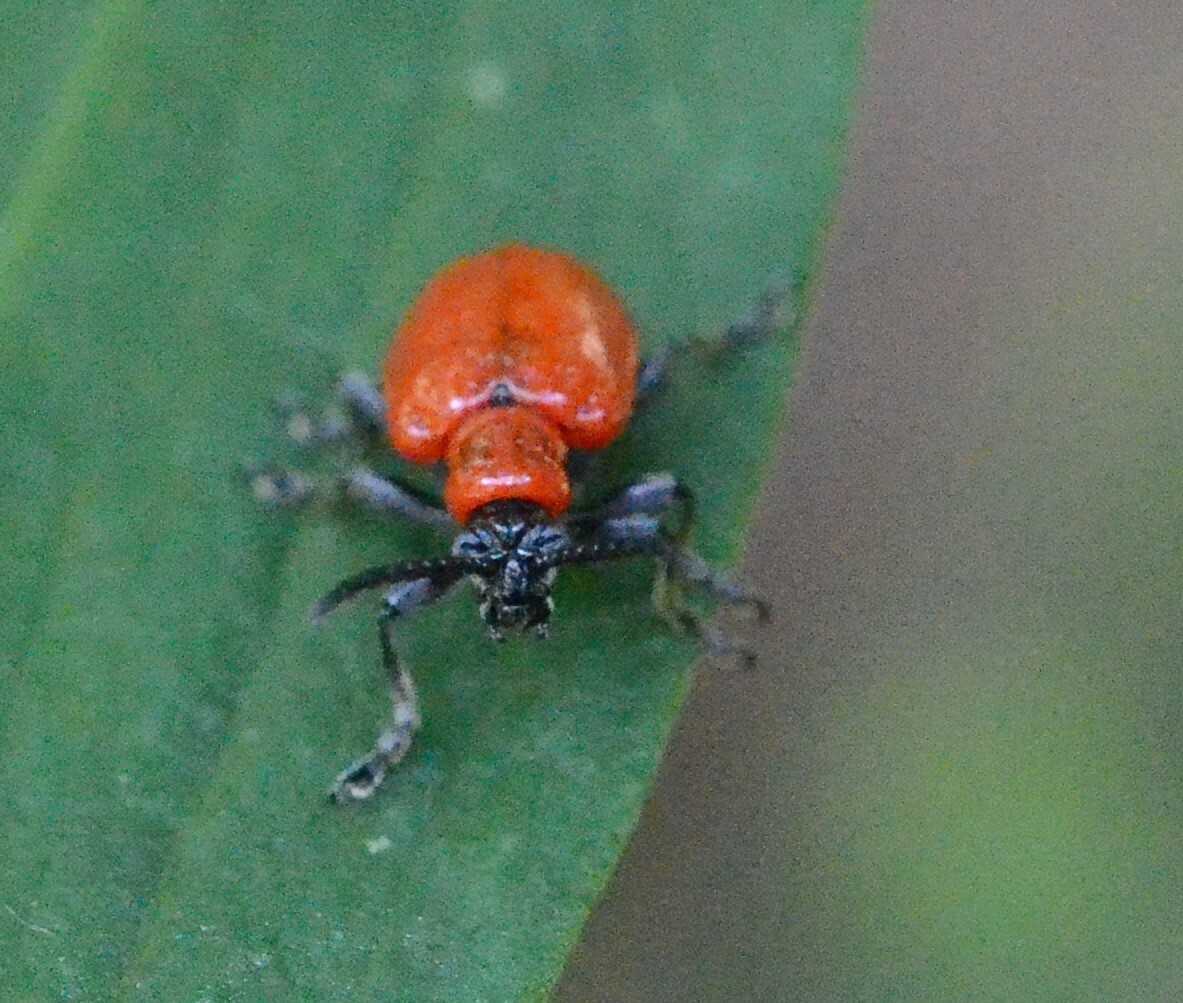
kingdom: Animalia
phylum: Arthropoda
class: Insecta
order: Coleoptera
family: Chrysomelidae
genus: Lilioceris
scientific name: Lilioceris lilii
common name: Lily beetle
